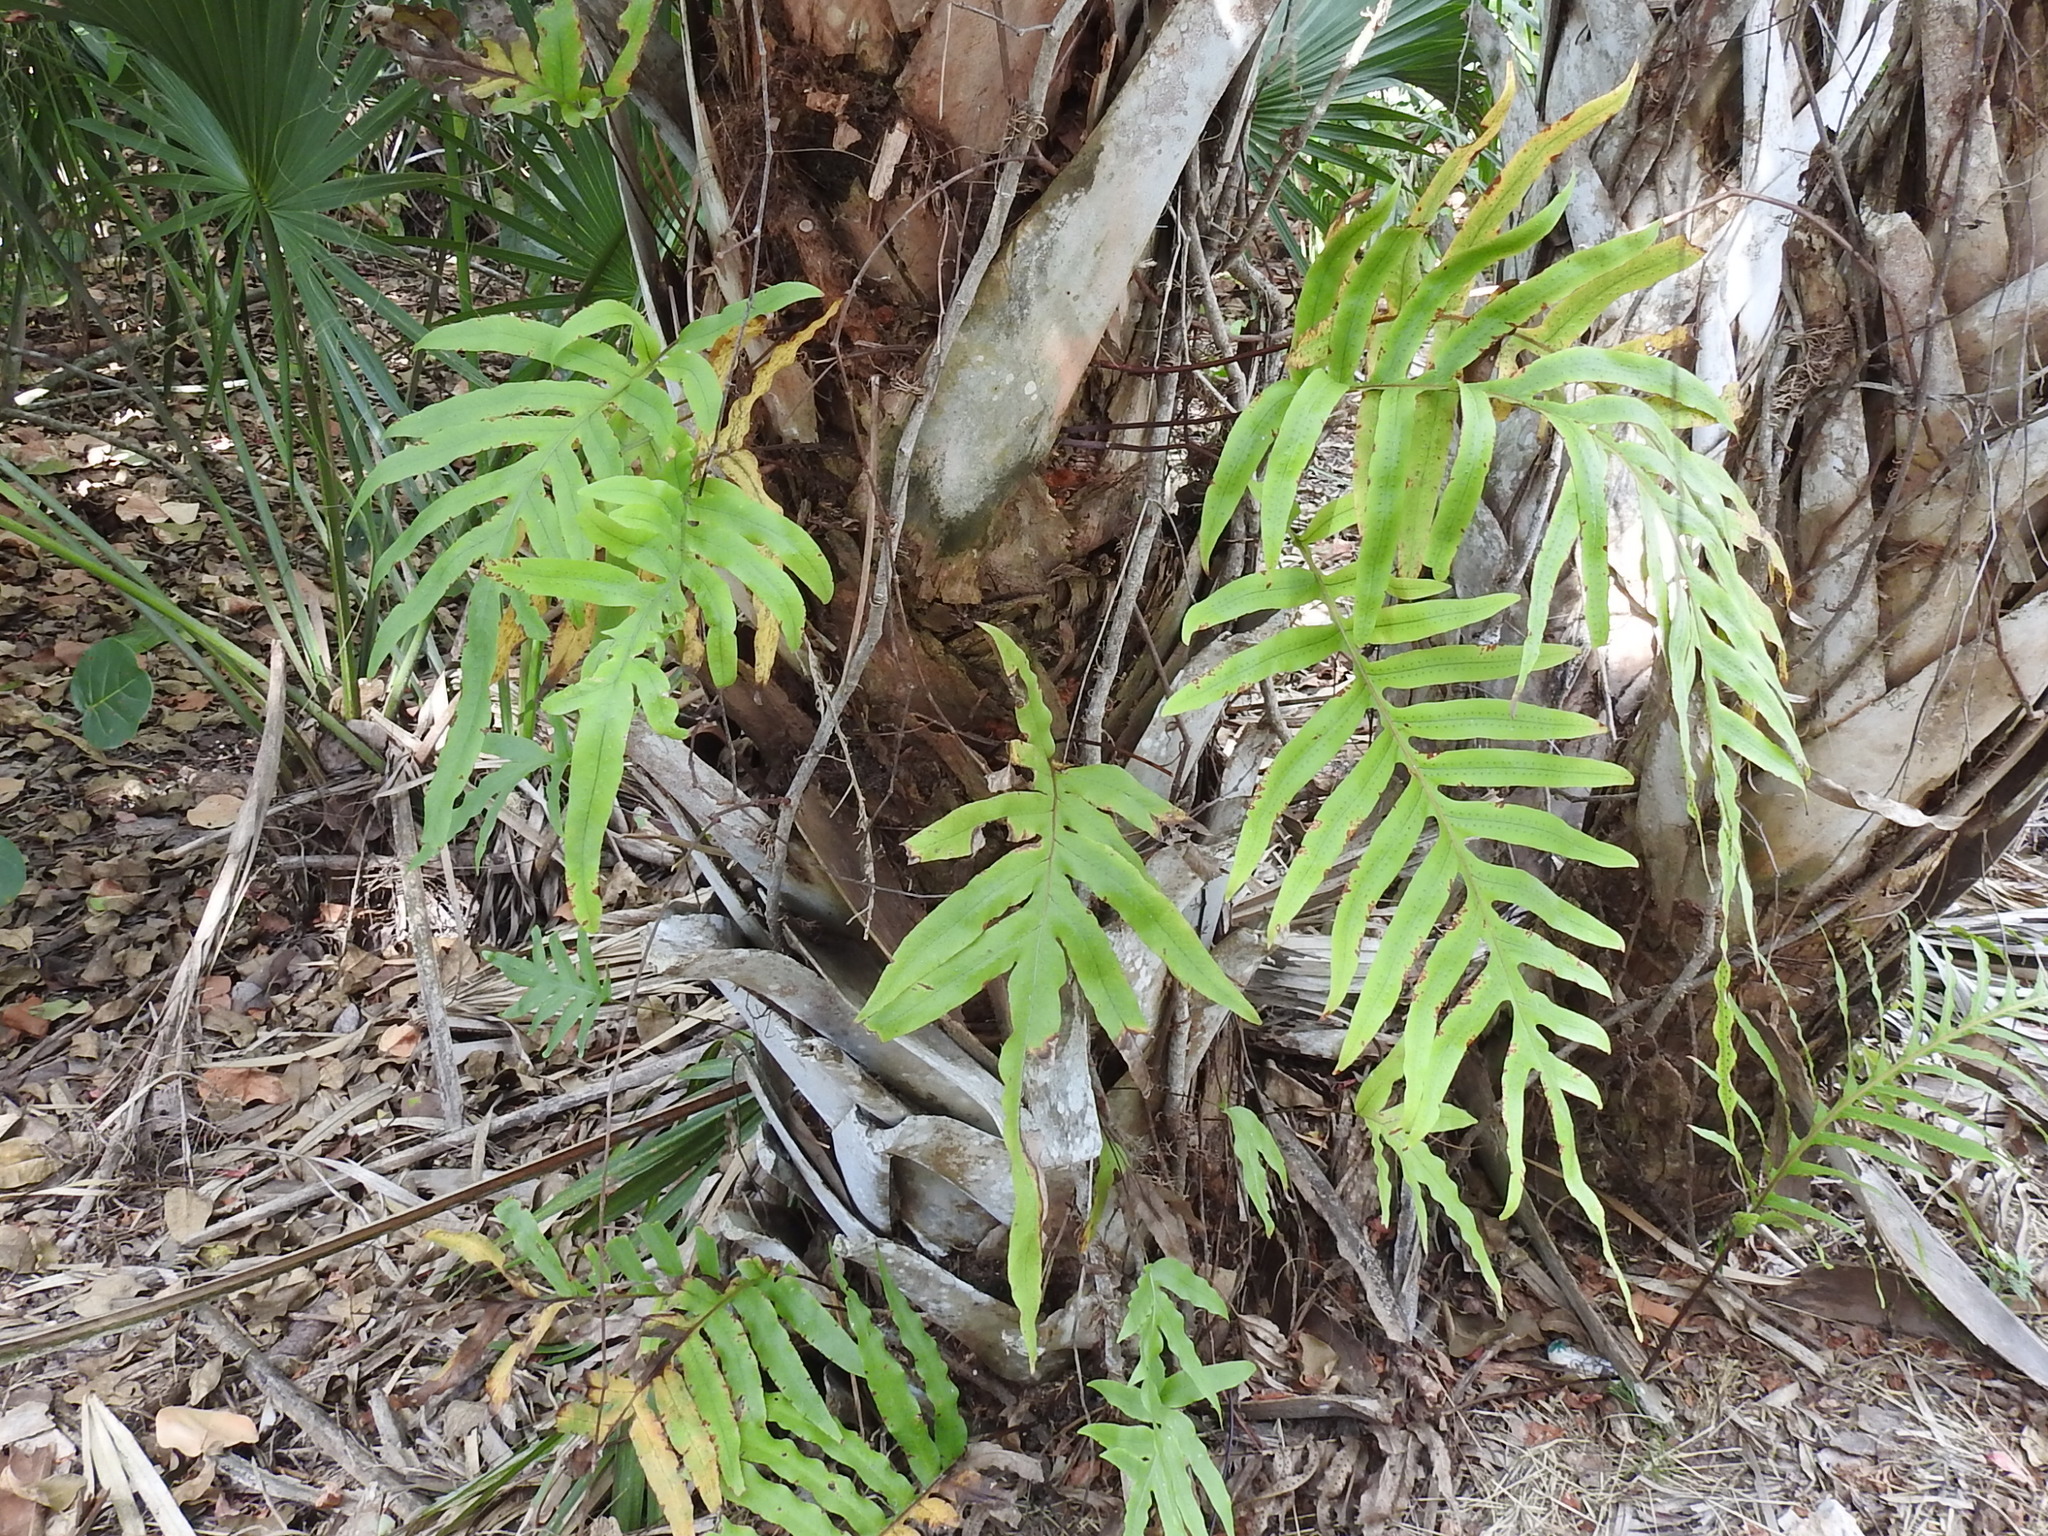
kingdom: Plantae
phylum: Tracheophyta
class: Polypodiopsida
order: Polypodiales
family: Polypodiaceae
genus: Phlebodium
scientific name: Phlebodium aureum
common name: Gold-foot fern
